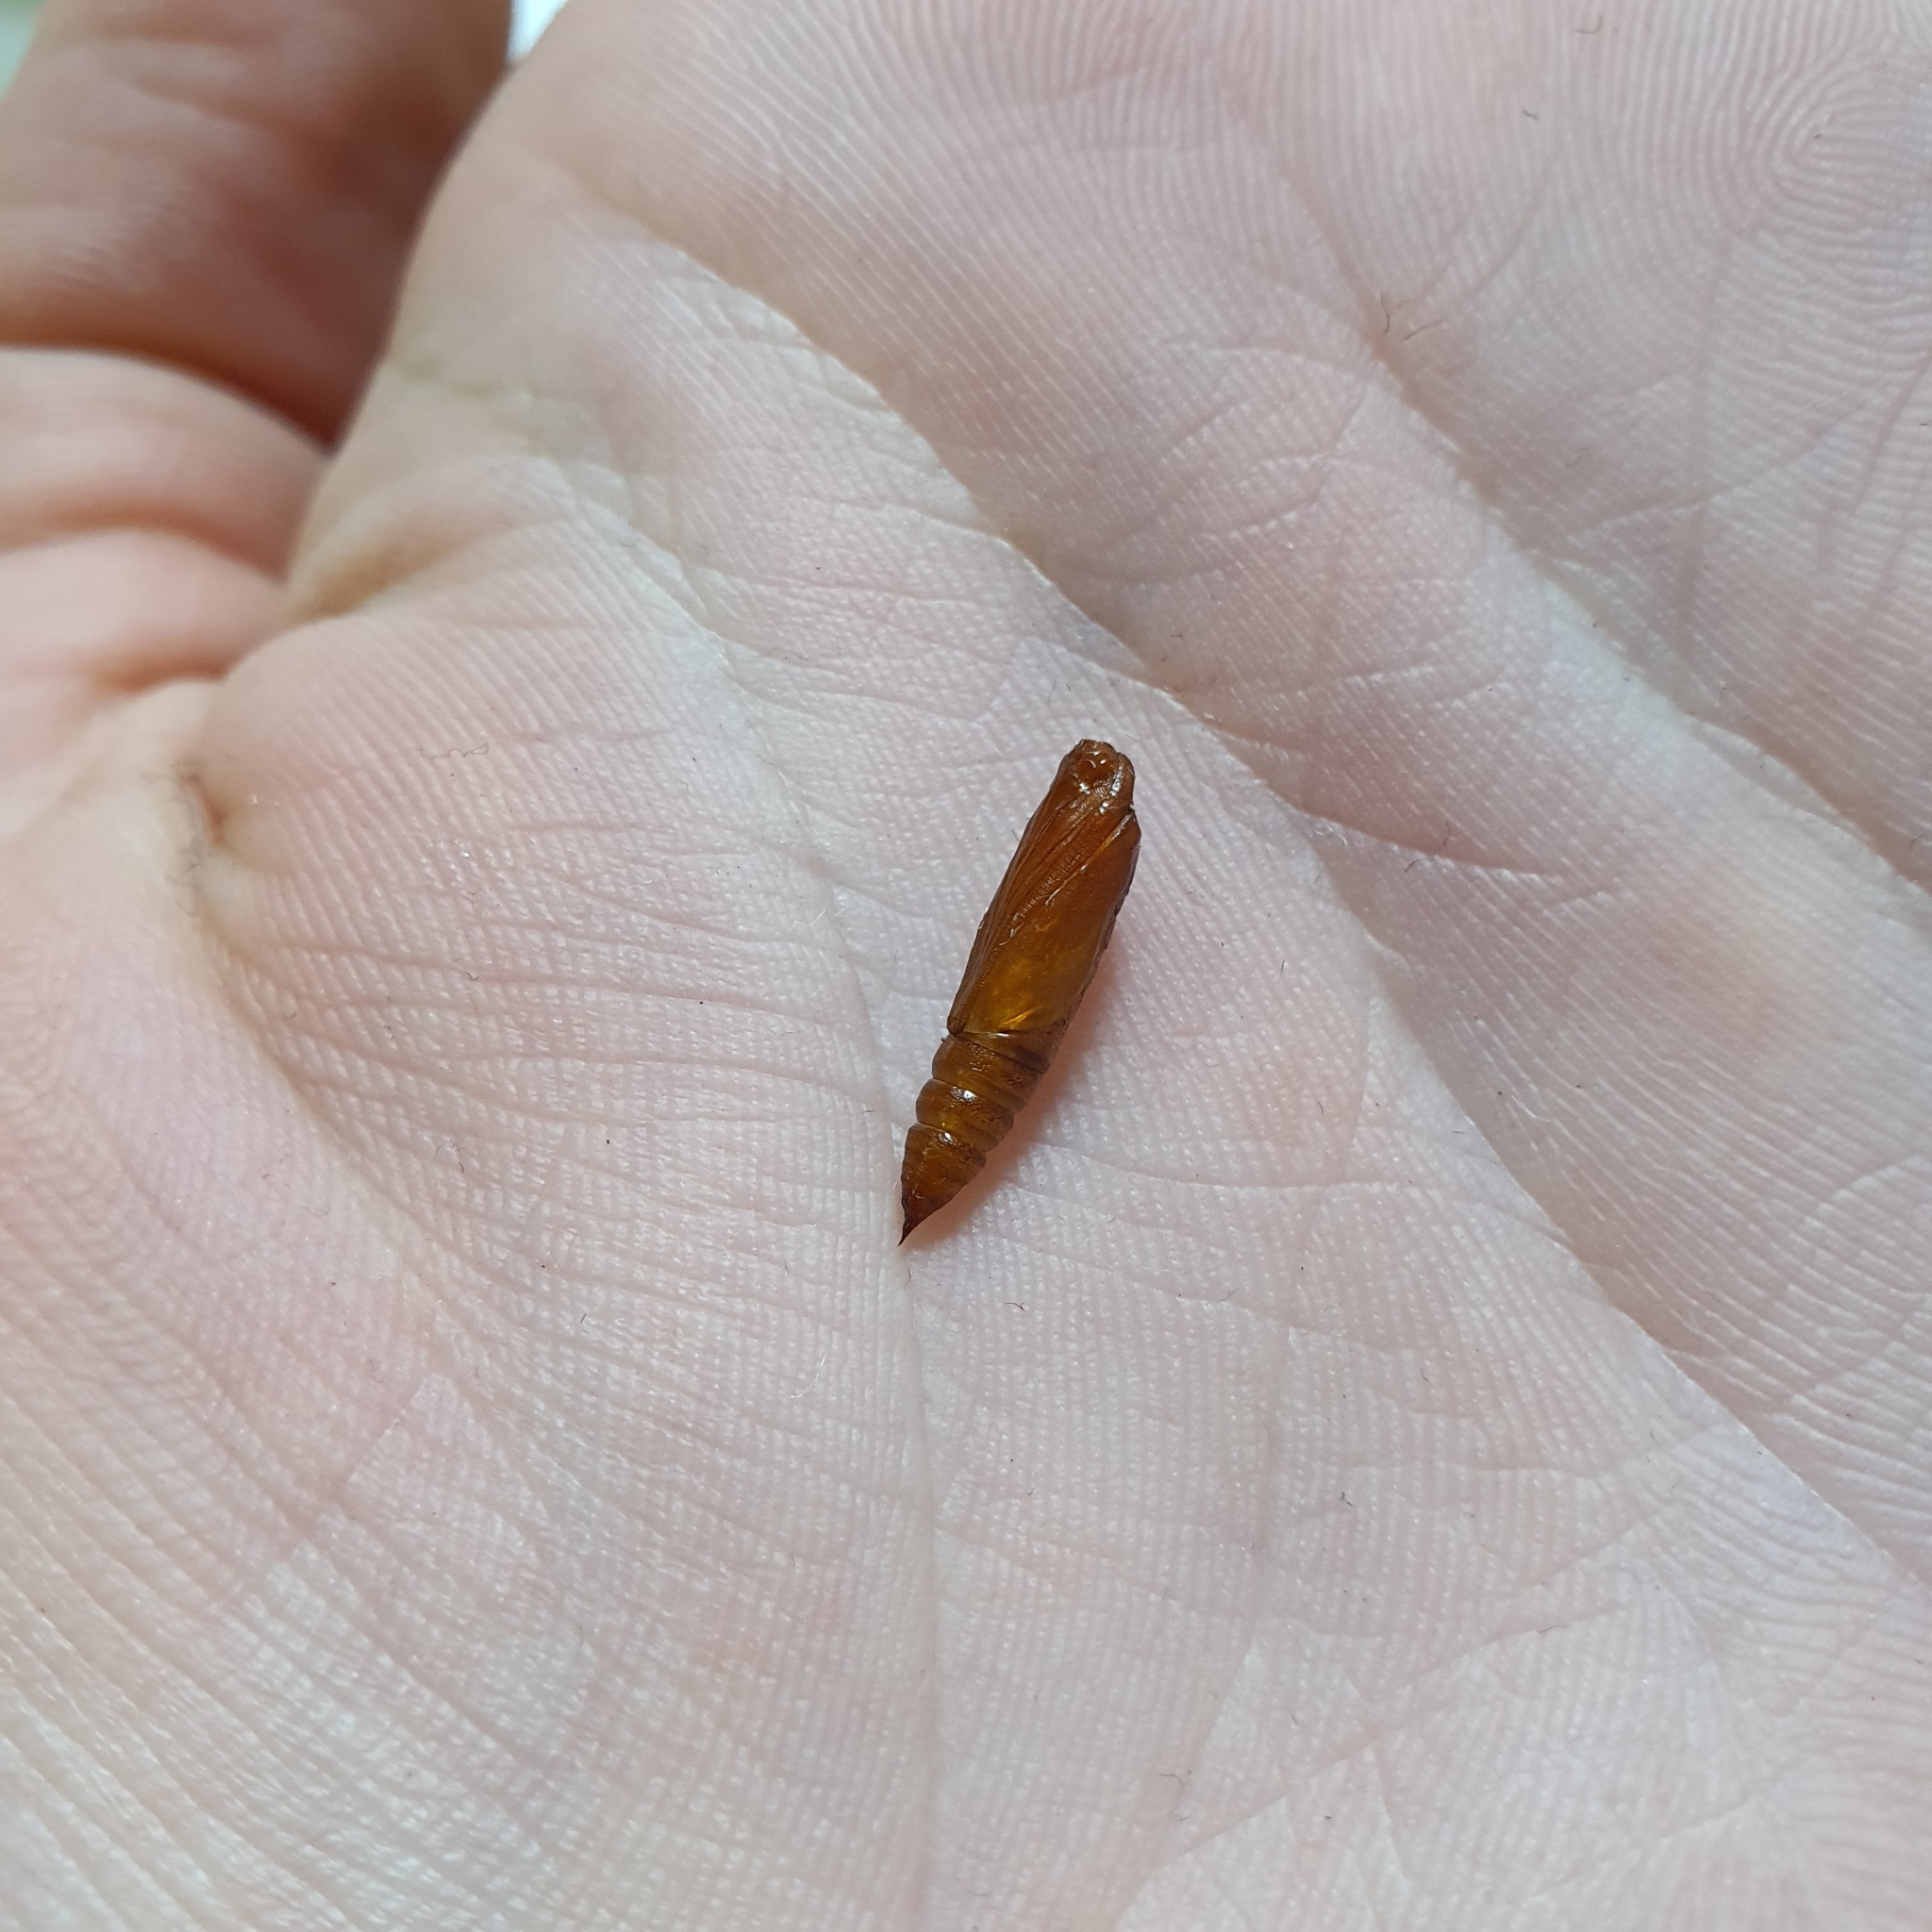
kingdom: Animalia
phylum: Arthropoda
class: Insecta
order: Lepidoptera
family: Geometridae
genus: Syneora
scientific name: Syneora hemeropa
